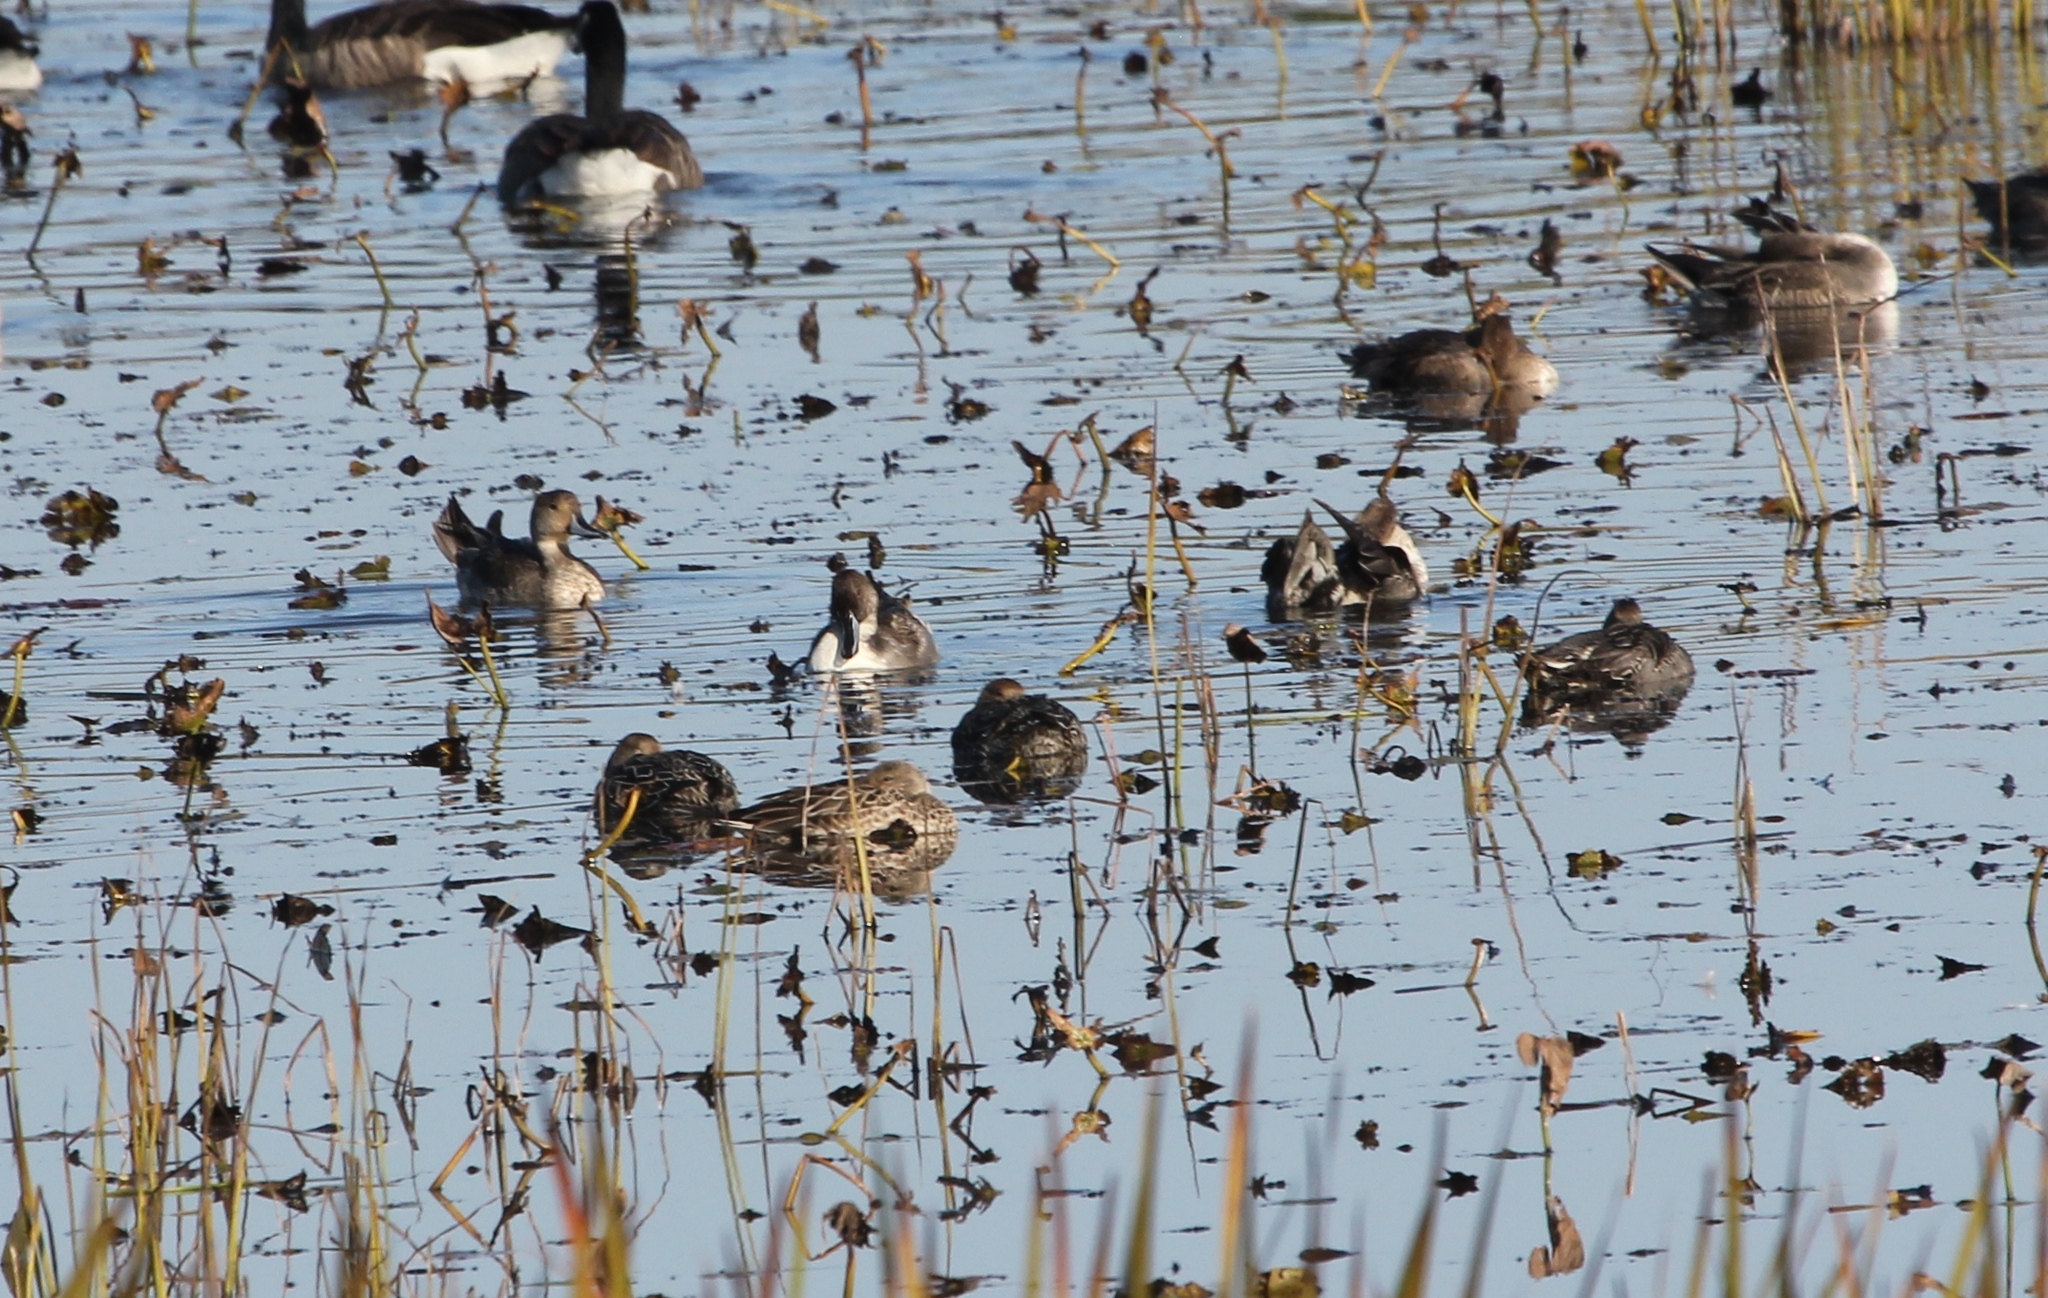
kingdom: Animalia
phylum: Chordata
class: Aves
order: Anseriformes
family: Anatidae
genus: Anas
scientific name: Anas acuta
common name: Northern pintail
